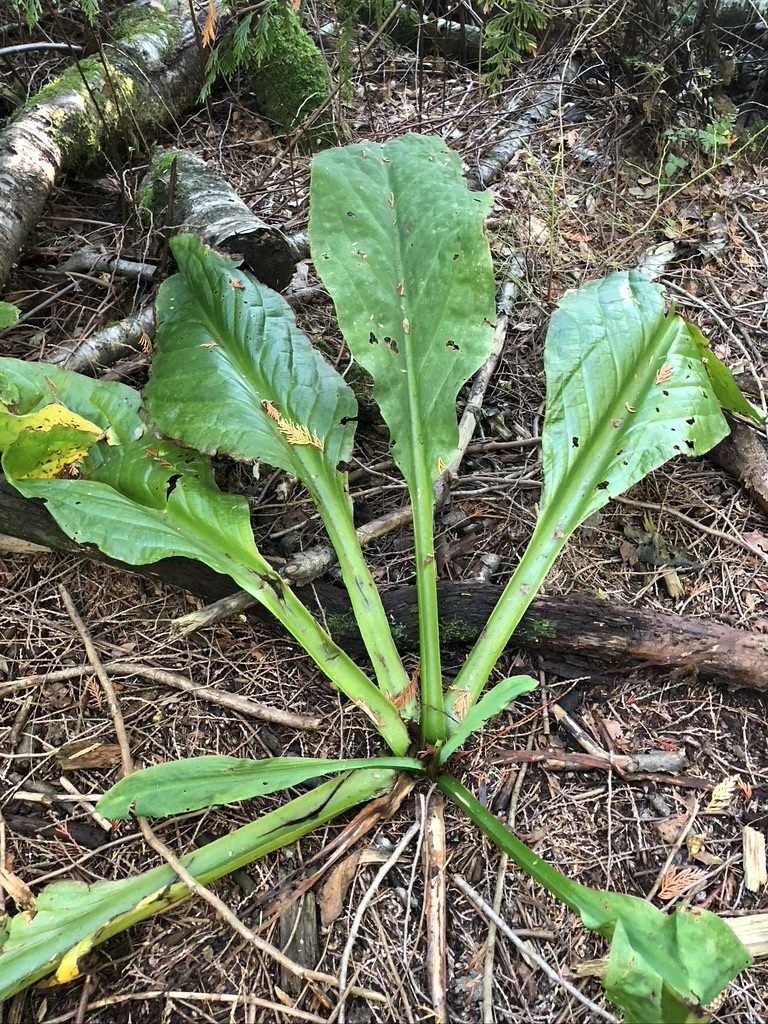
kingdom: Plantae
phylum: Tracheophyta
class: Liliopsida
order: Alismatales
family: Araceae
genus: Lysichiton
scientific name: Lysichiton americanus
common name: American skunk cabbage
